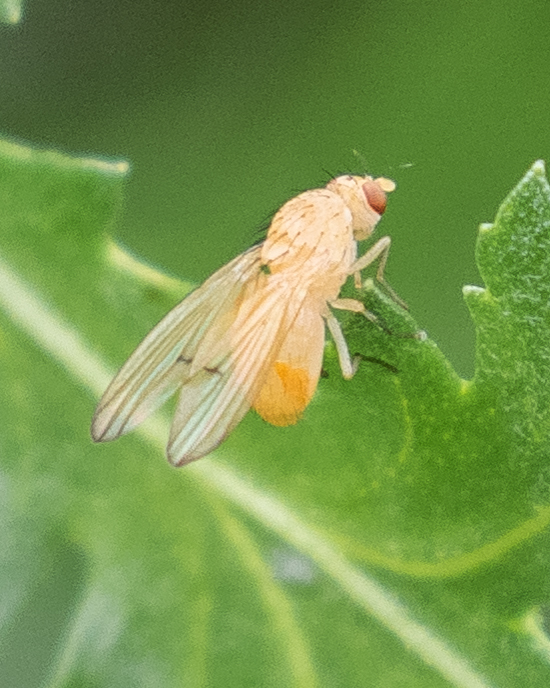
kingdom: Animalia
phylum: Arthropoda
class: Insecta
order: Diptera
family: Lauxaniidae
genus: Tricholauxania
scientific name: Tricholauxania praeusta
